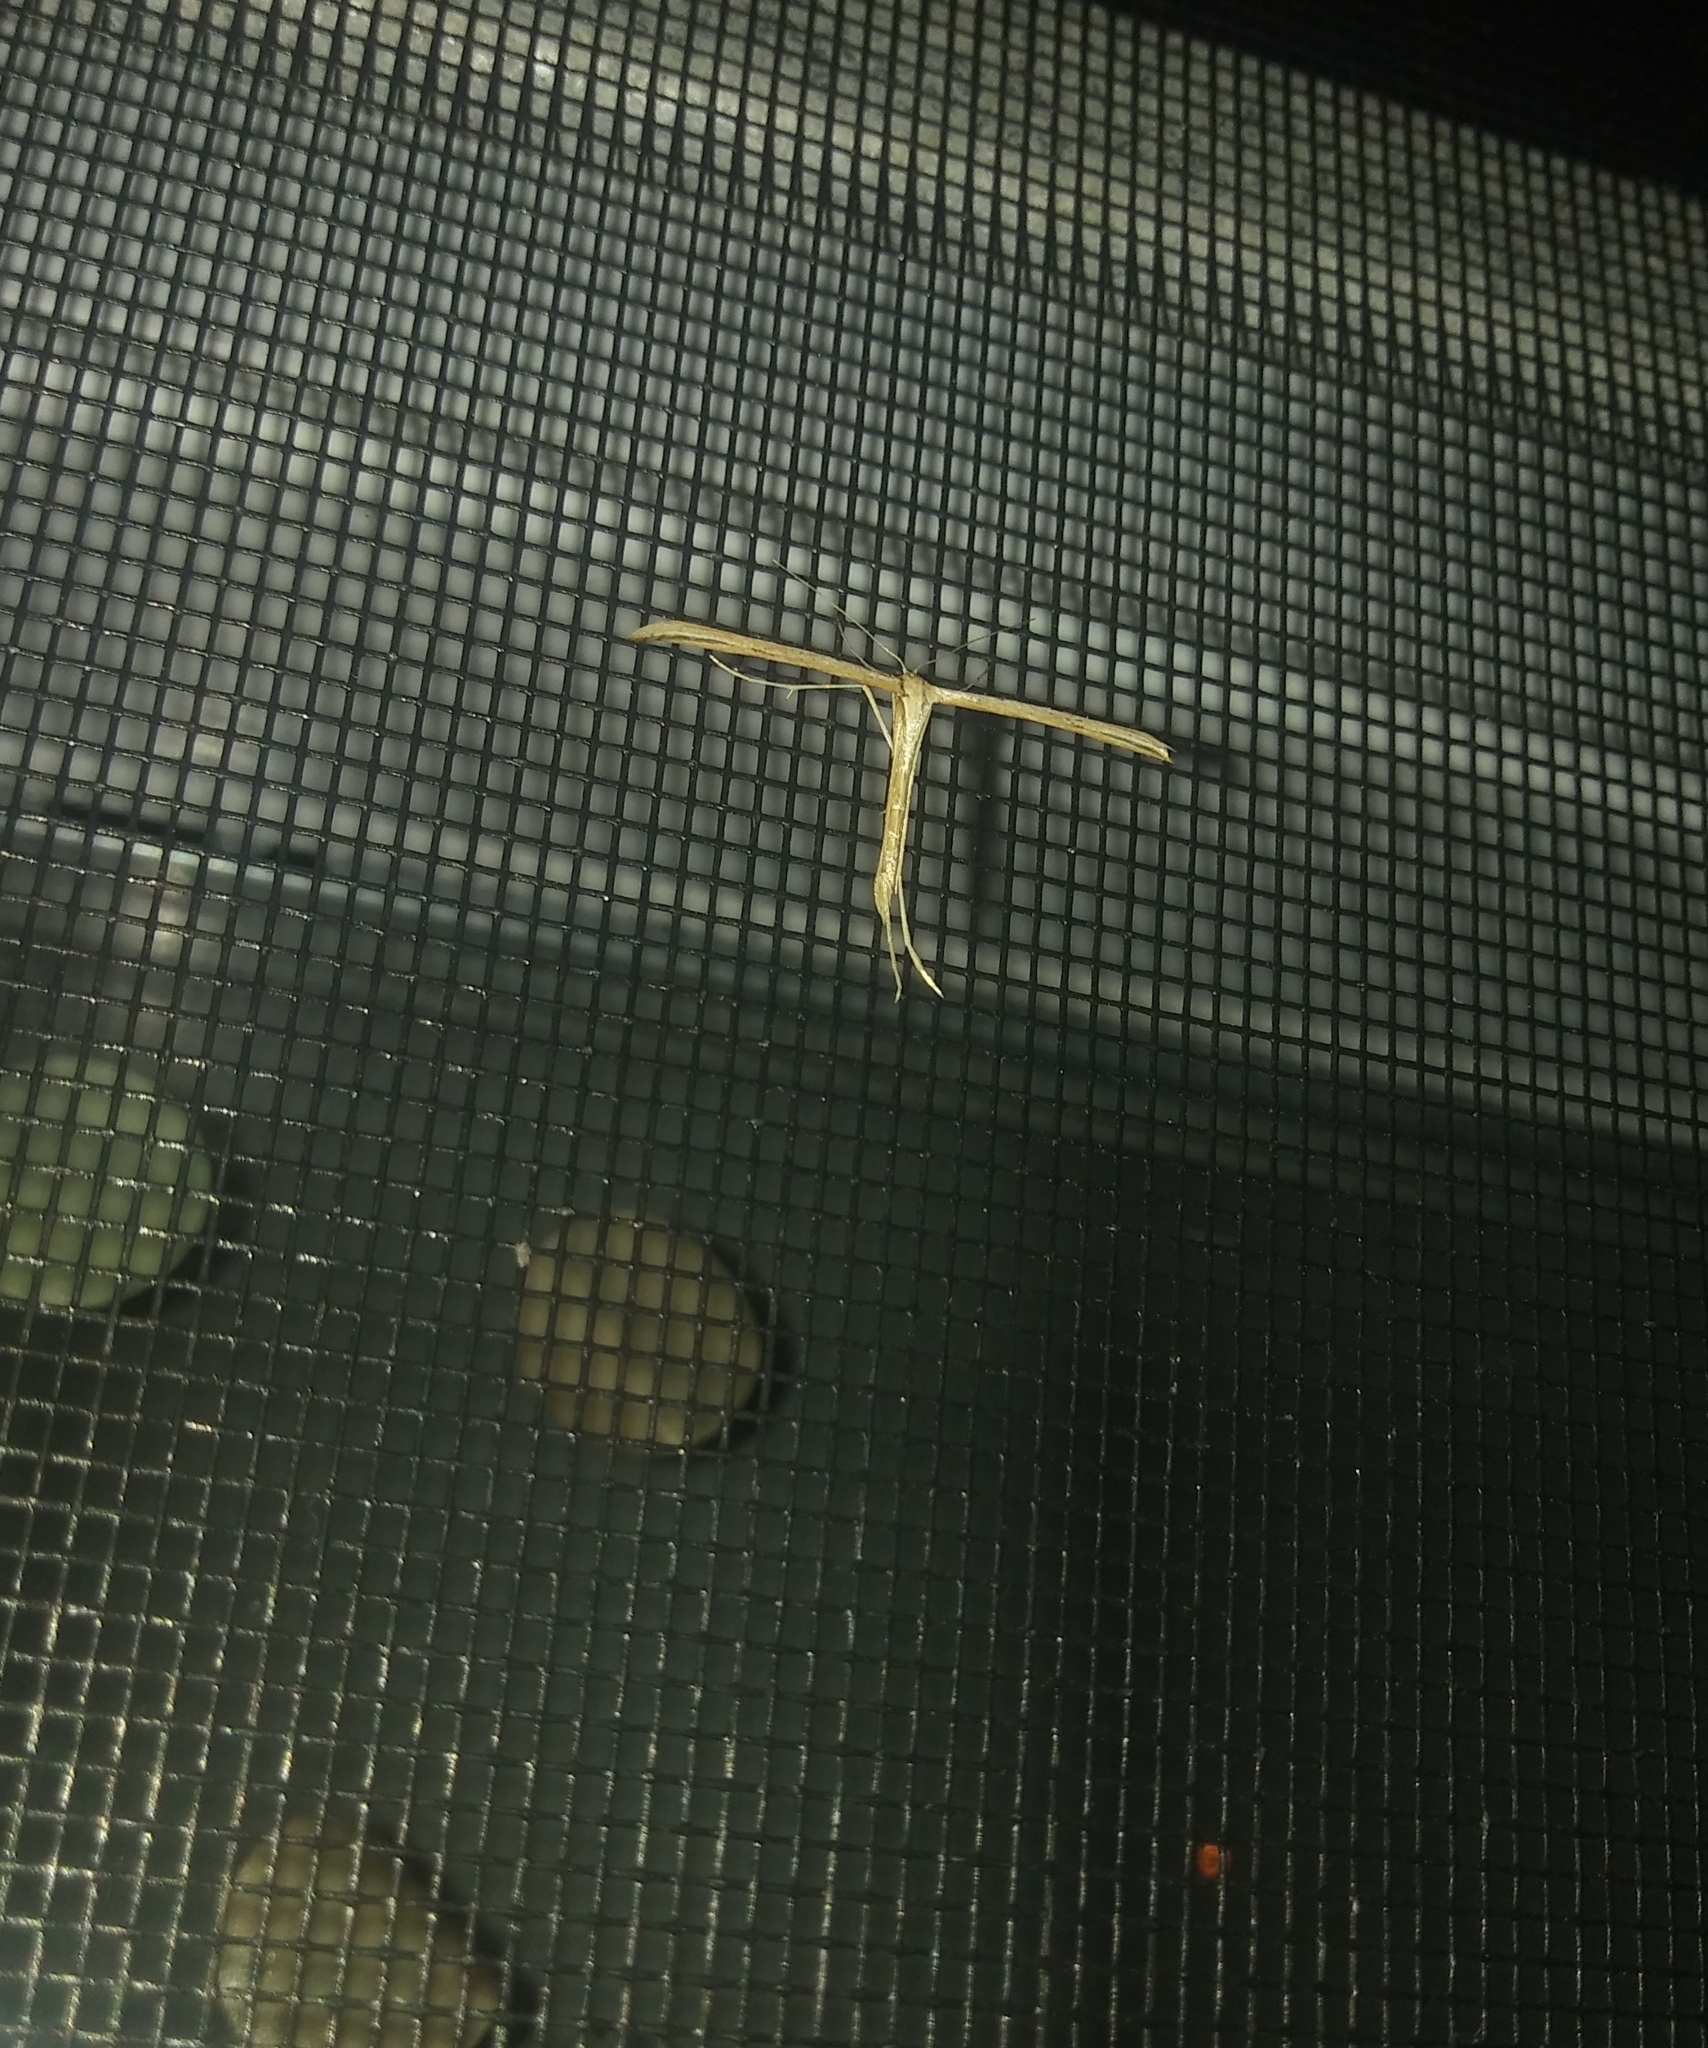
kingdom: Animalia
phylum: Arthropoda
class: Insecta
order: Lepidoptera
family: Pterophoridae
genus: Emmelina
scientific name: Emmelina monodactyla
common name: Common plume
